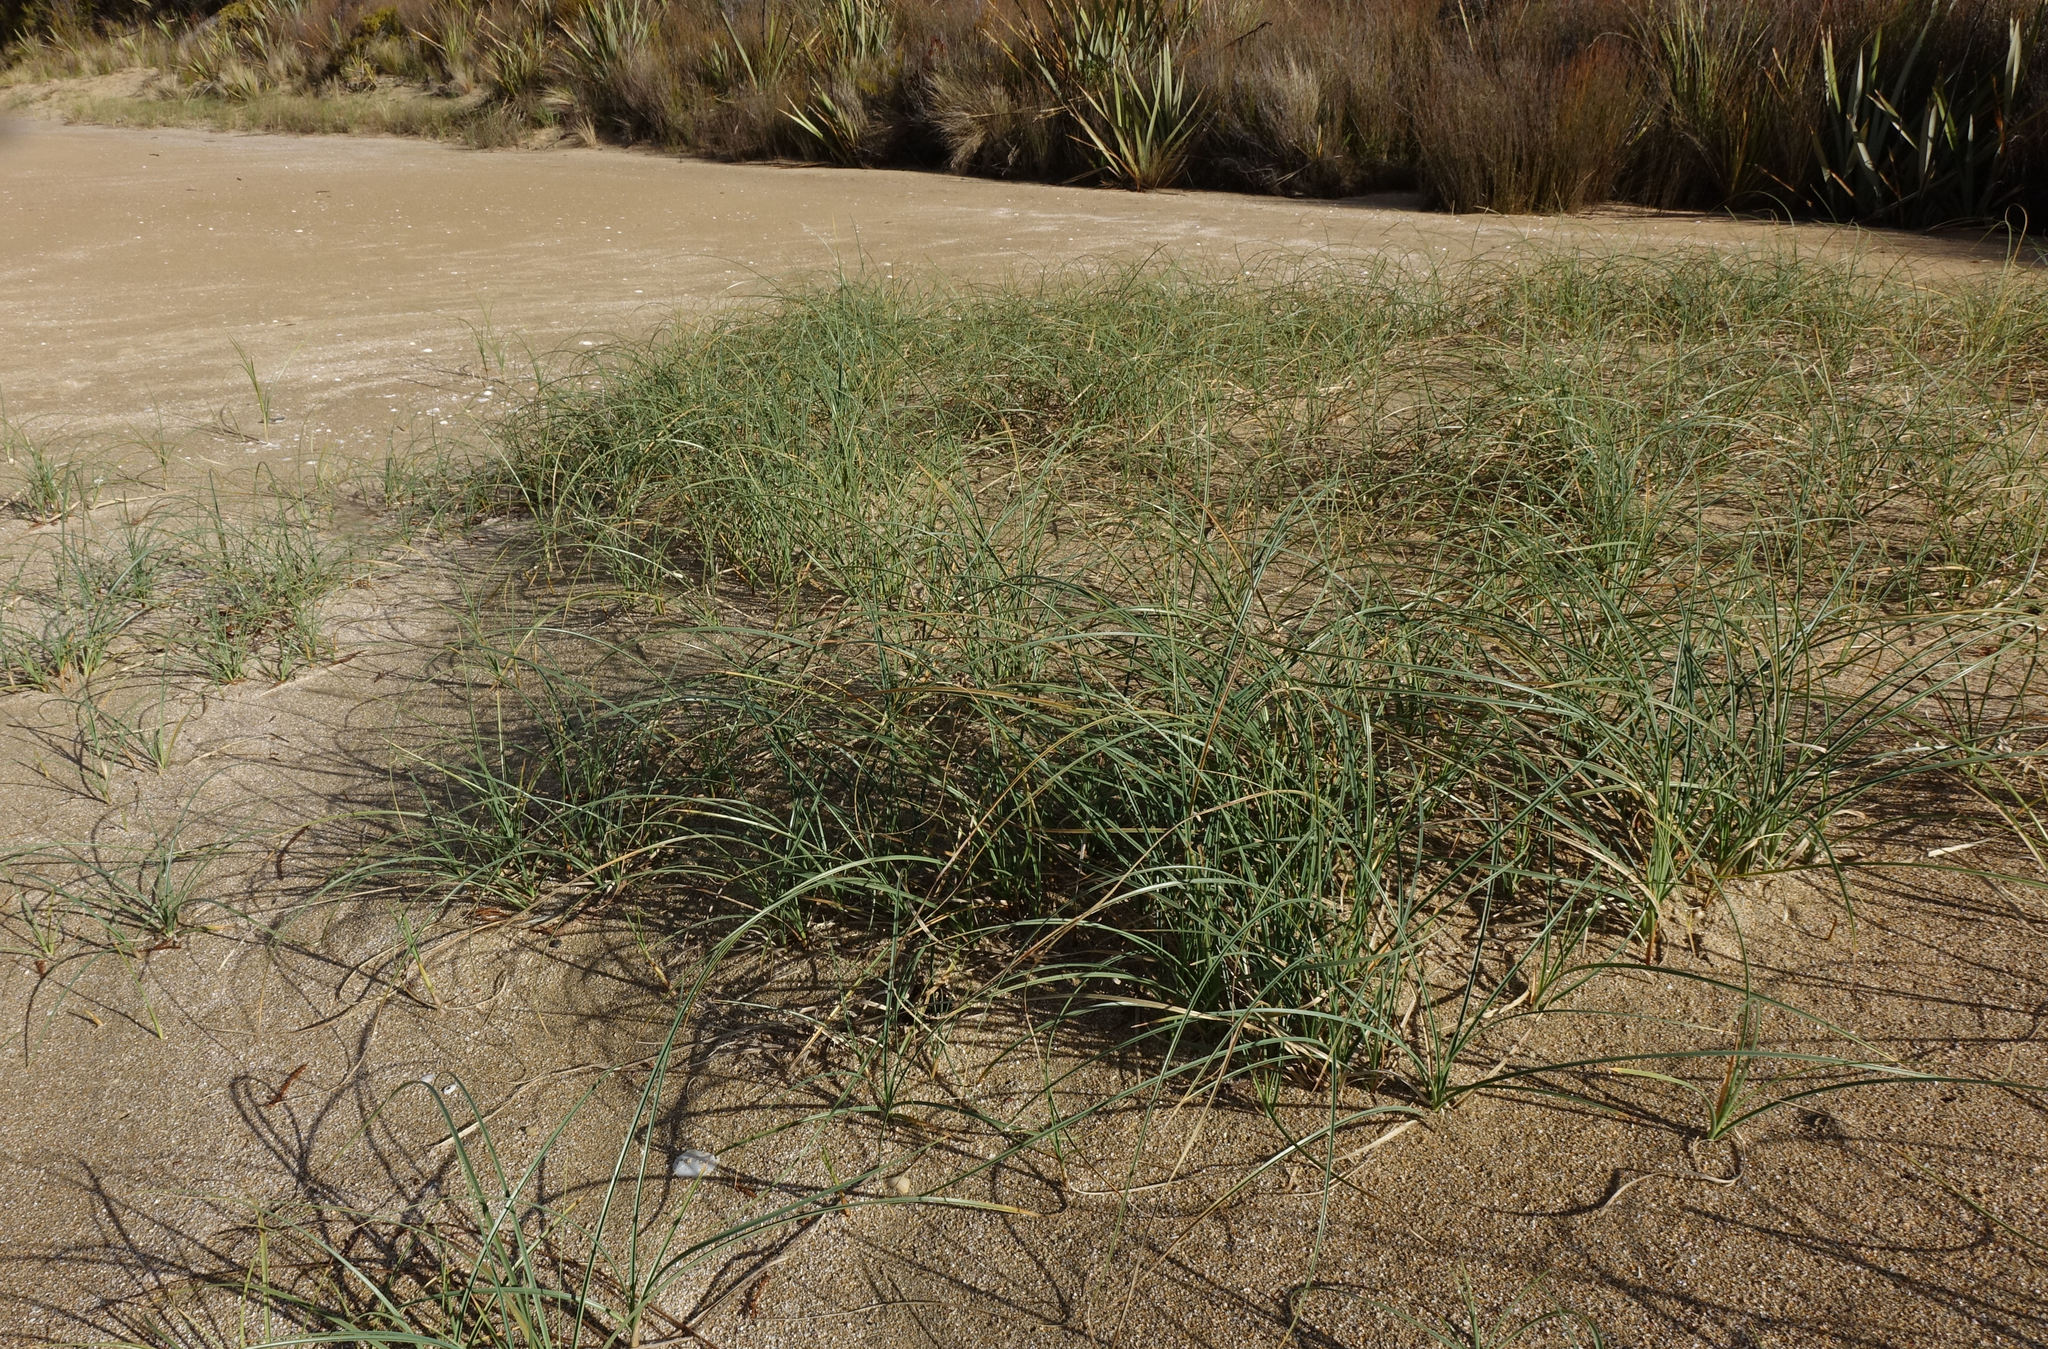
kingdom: Plantae
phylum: Tracheophyta
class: Liliopsida
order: Poales
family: Cyperaceae
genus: Carex
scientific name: Carex pumila
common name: Dwarf sedge
